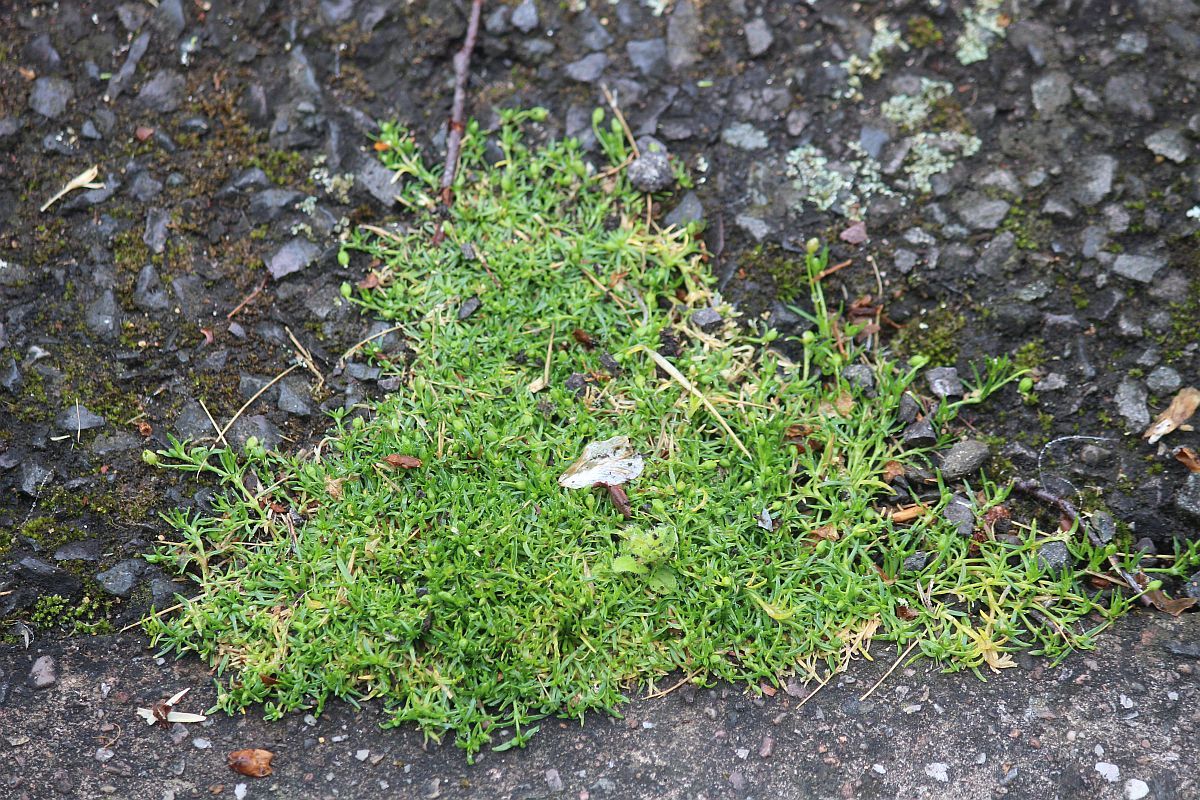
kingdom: Plantae
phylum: Tracheophyta
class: Magnoliopsida
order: Caryophyllales
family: Caryophyllaceae
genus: Sagina
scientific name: Sagina procumbens
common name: Procumbent pearlwort
